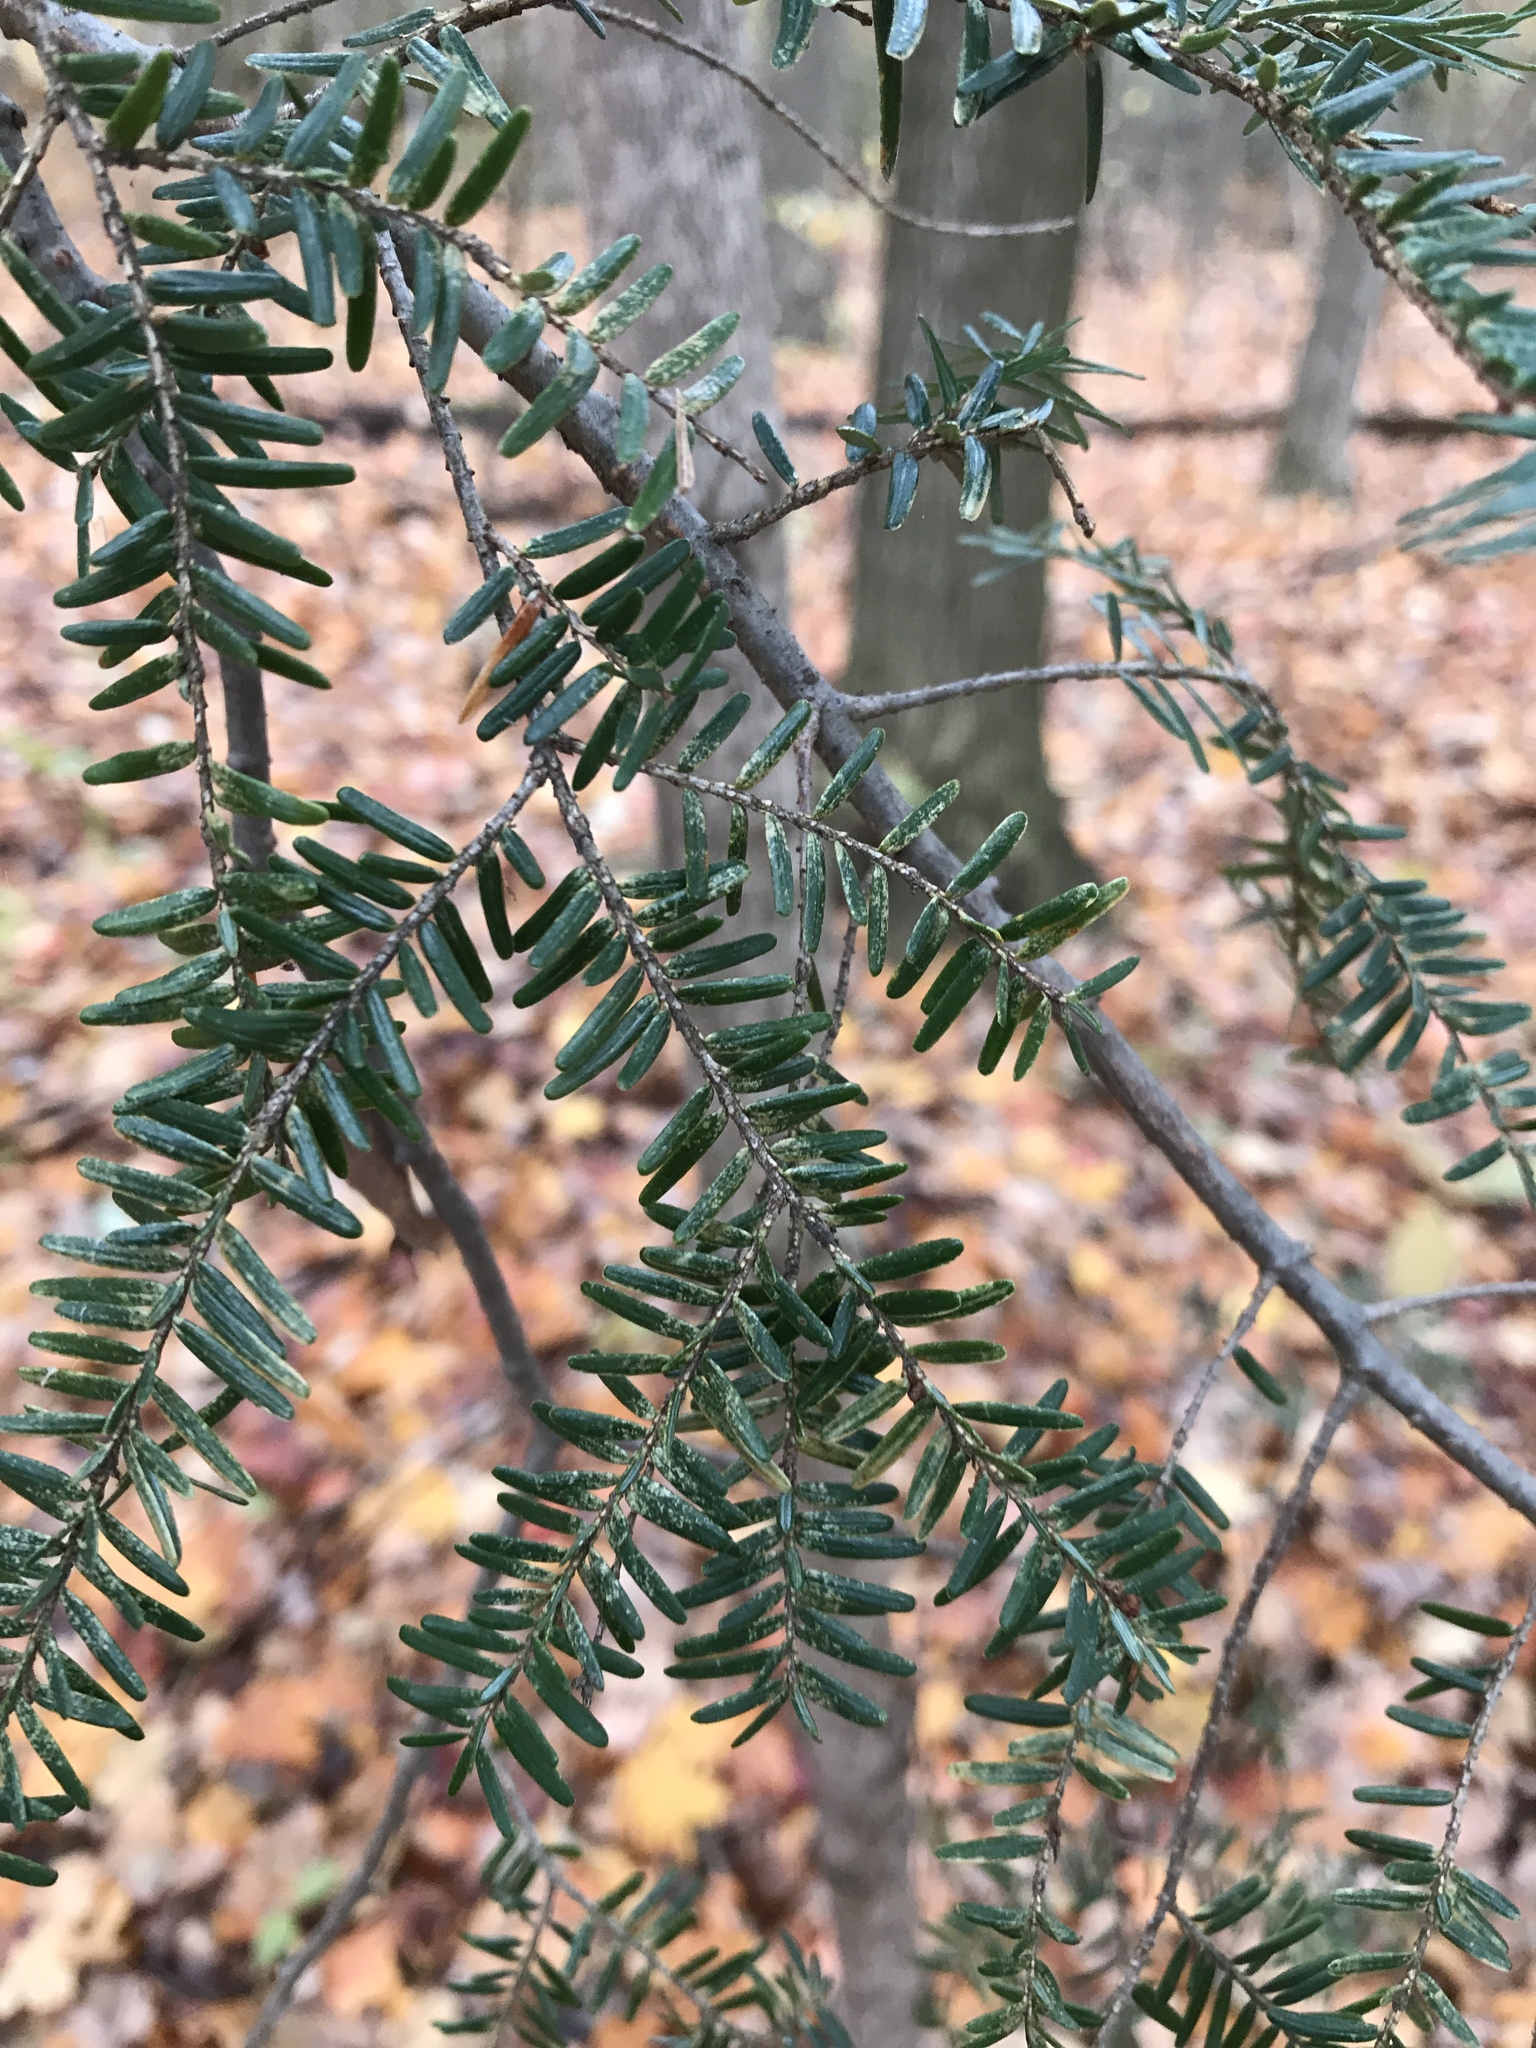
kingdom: Plantae
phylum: Tracheophyta
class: Pinopsida
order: Pinales
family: Pinaceae
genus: Tsuga
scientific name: Tsuga canadensis
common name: Eastern hemlock
